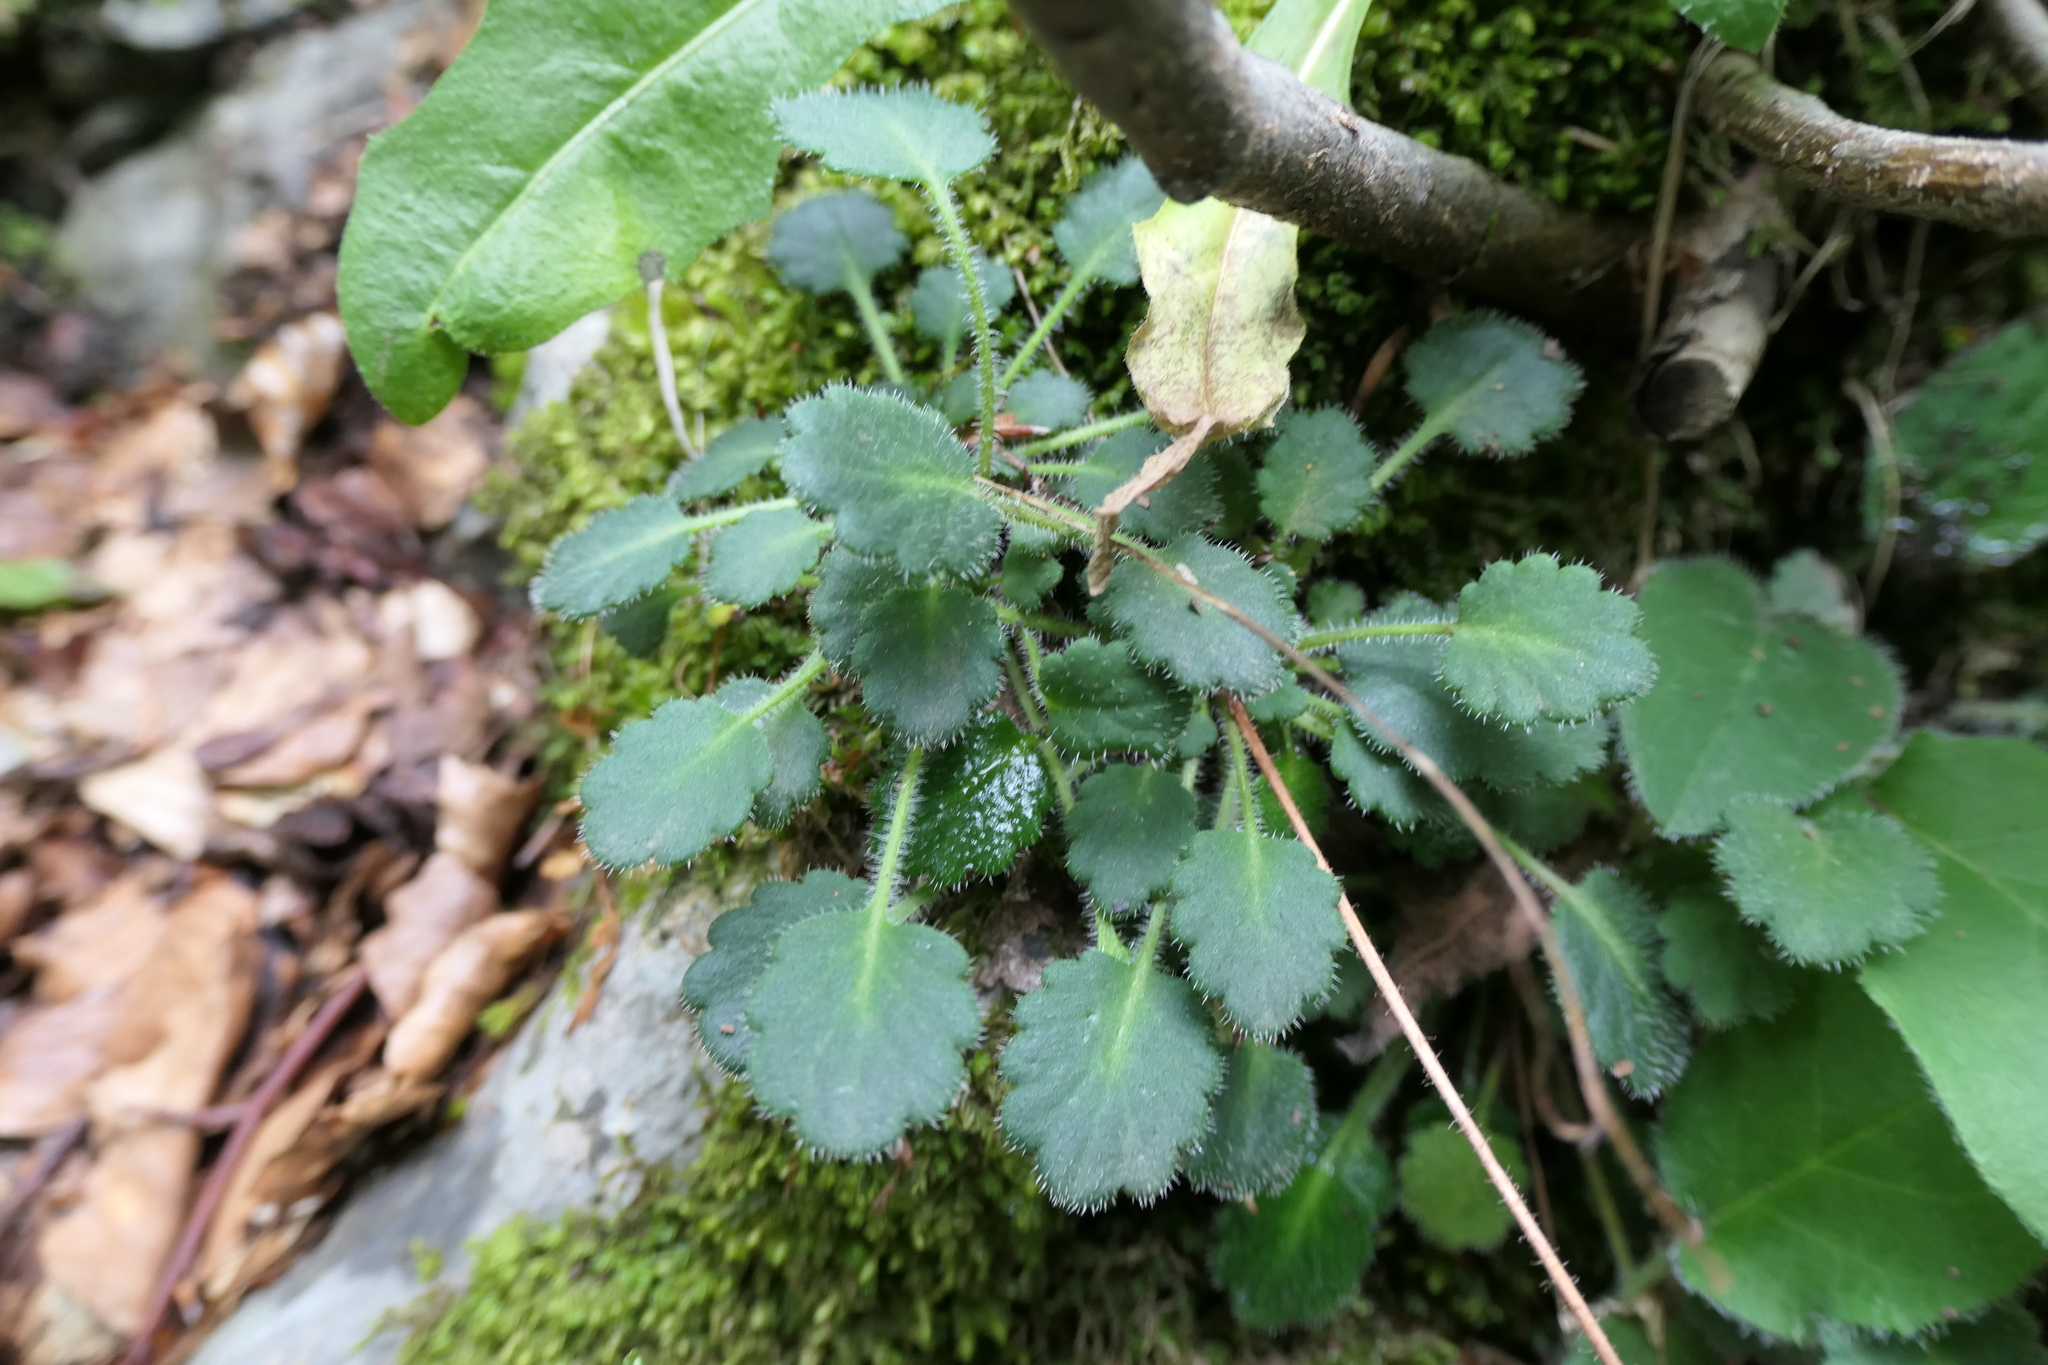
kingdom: Plantae
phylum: Tracheophyta
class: Magnoliopsida
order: Saxifragales
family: Saxifragaceae
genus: Saxifraga
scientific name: Saxifraga hirsuta
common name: Kidney saxifrage
